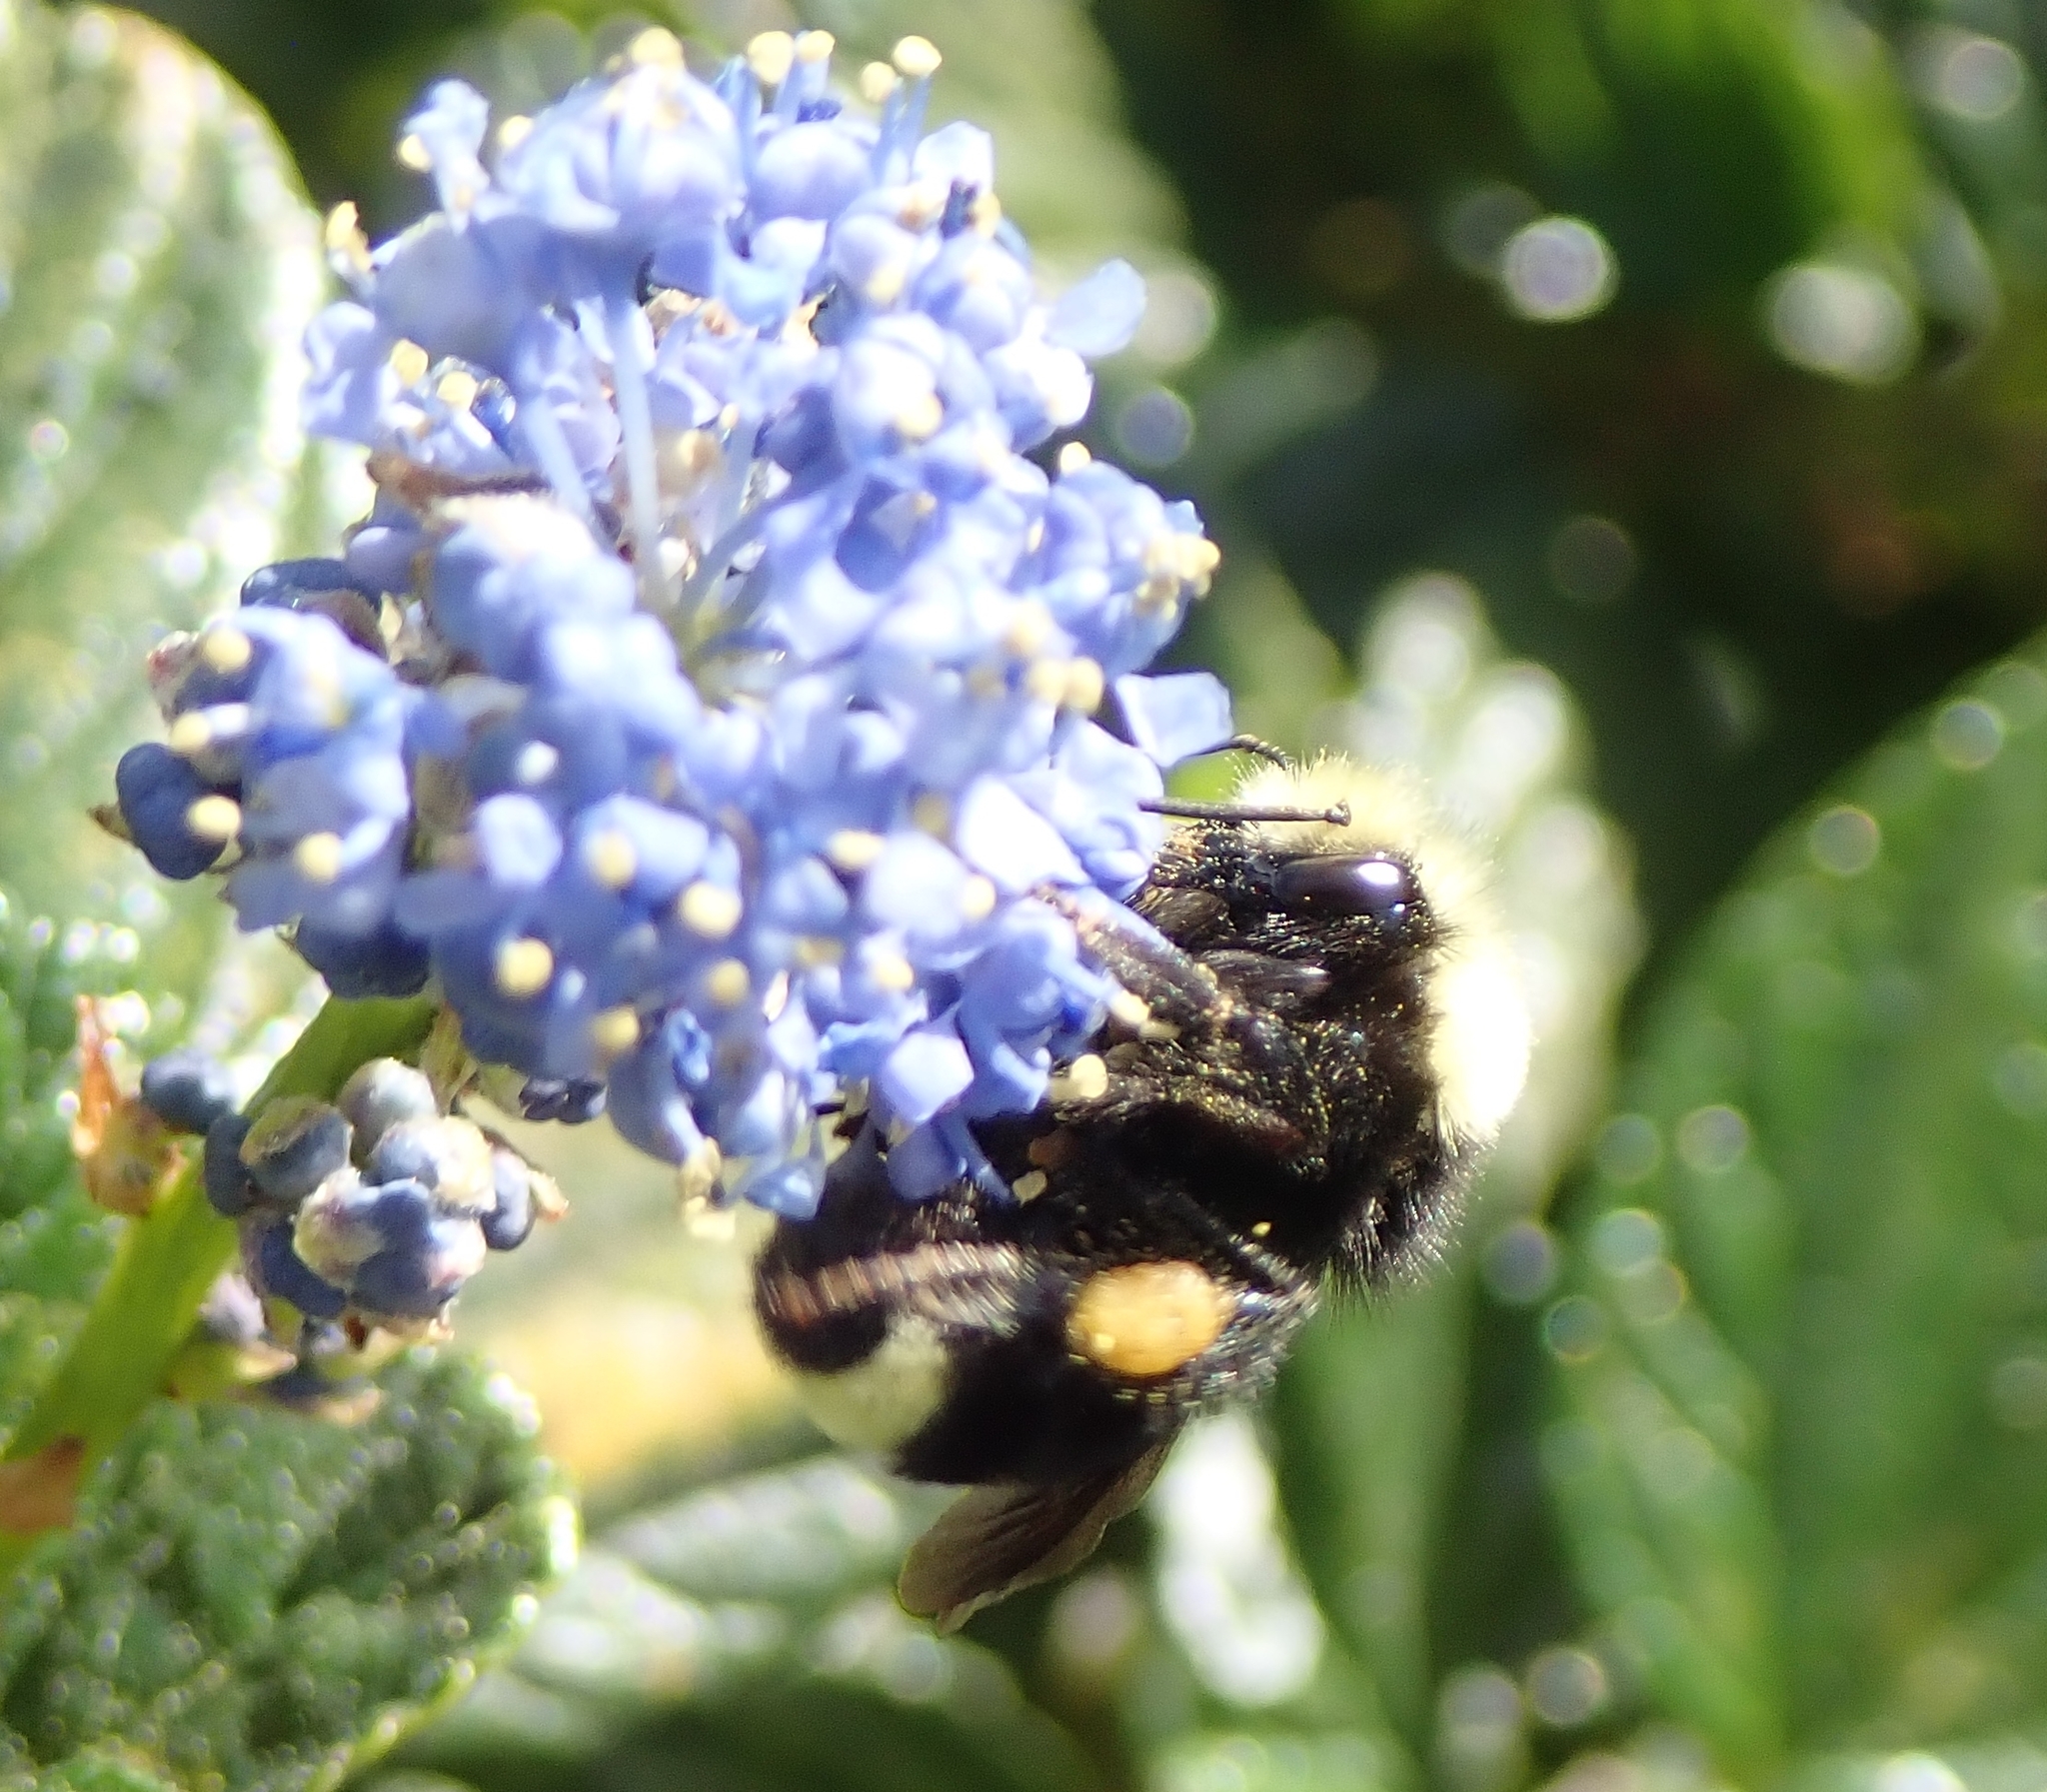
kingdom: Animalia
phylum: Arthropoda
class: Insecta
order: Hymenoptera
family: Apidae
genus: Bombus
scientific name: Bombus vosnesenskii
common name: Vosnesensky bumble bee
